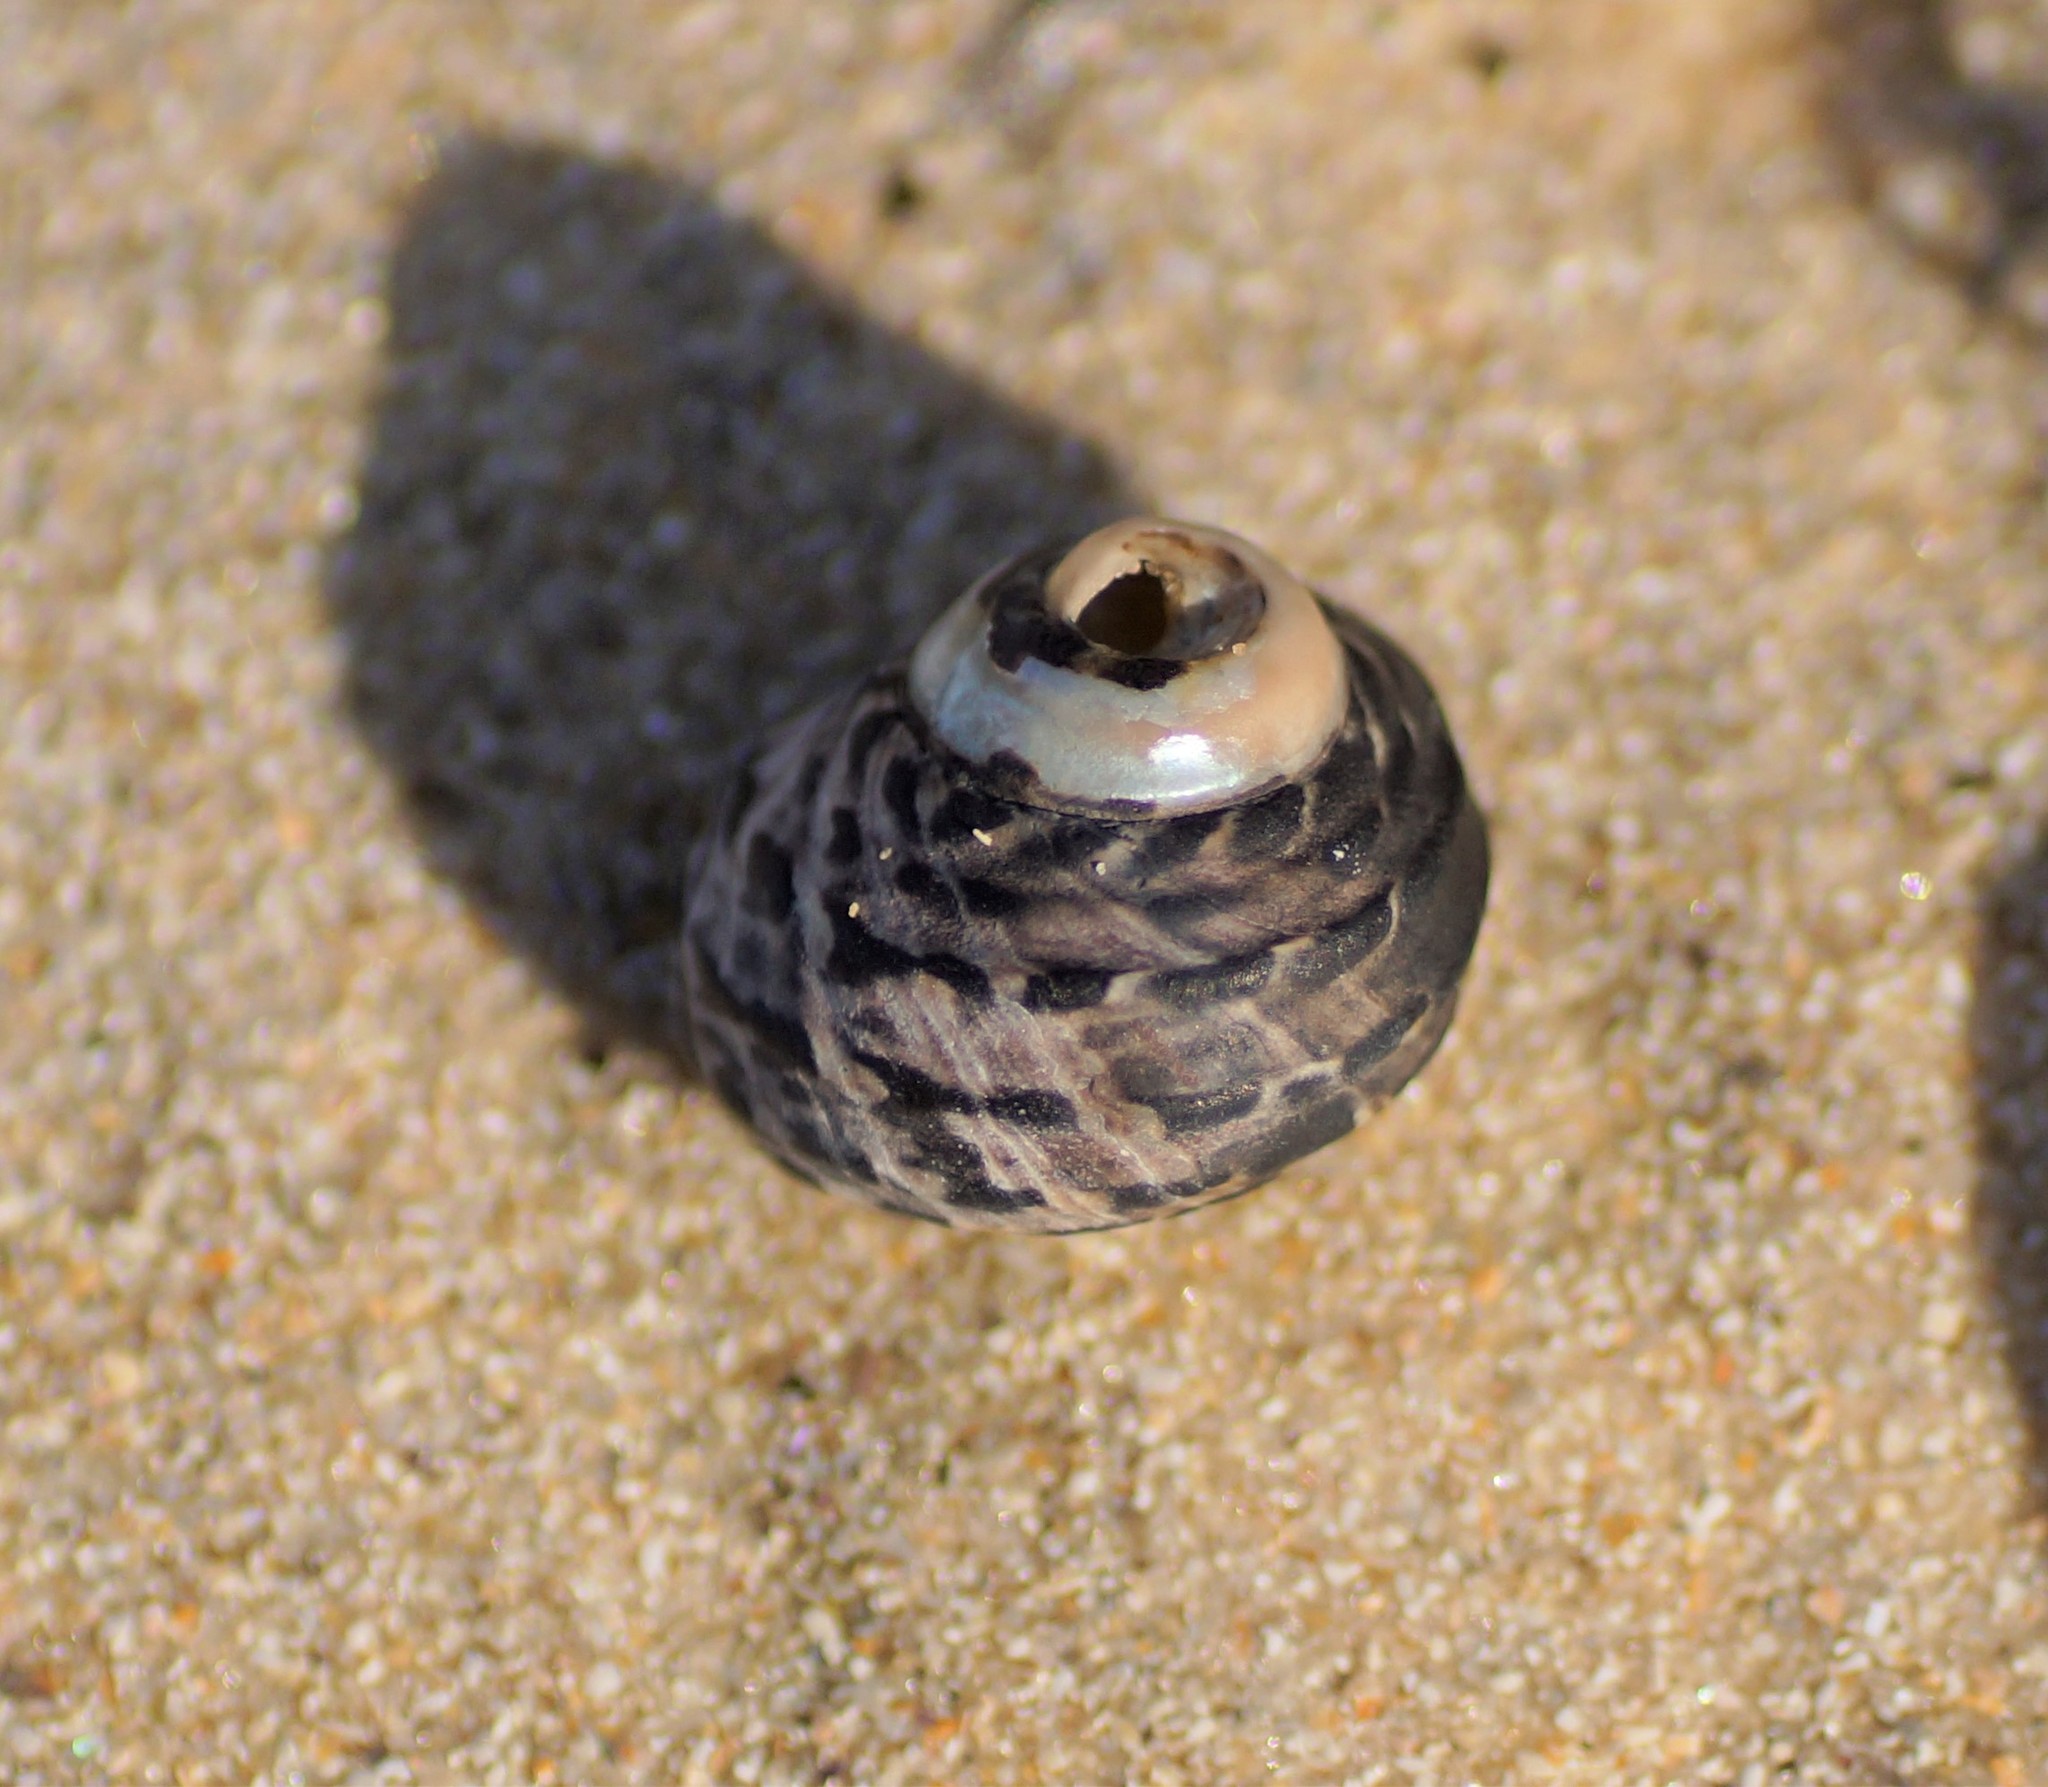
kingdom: Animalia
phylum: Mollusca
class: Gastropoda
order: Trochida
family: Trochidae
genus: Austrocochlea
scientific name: Austrocochlea constricta
